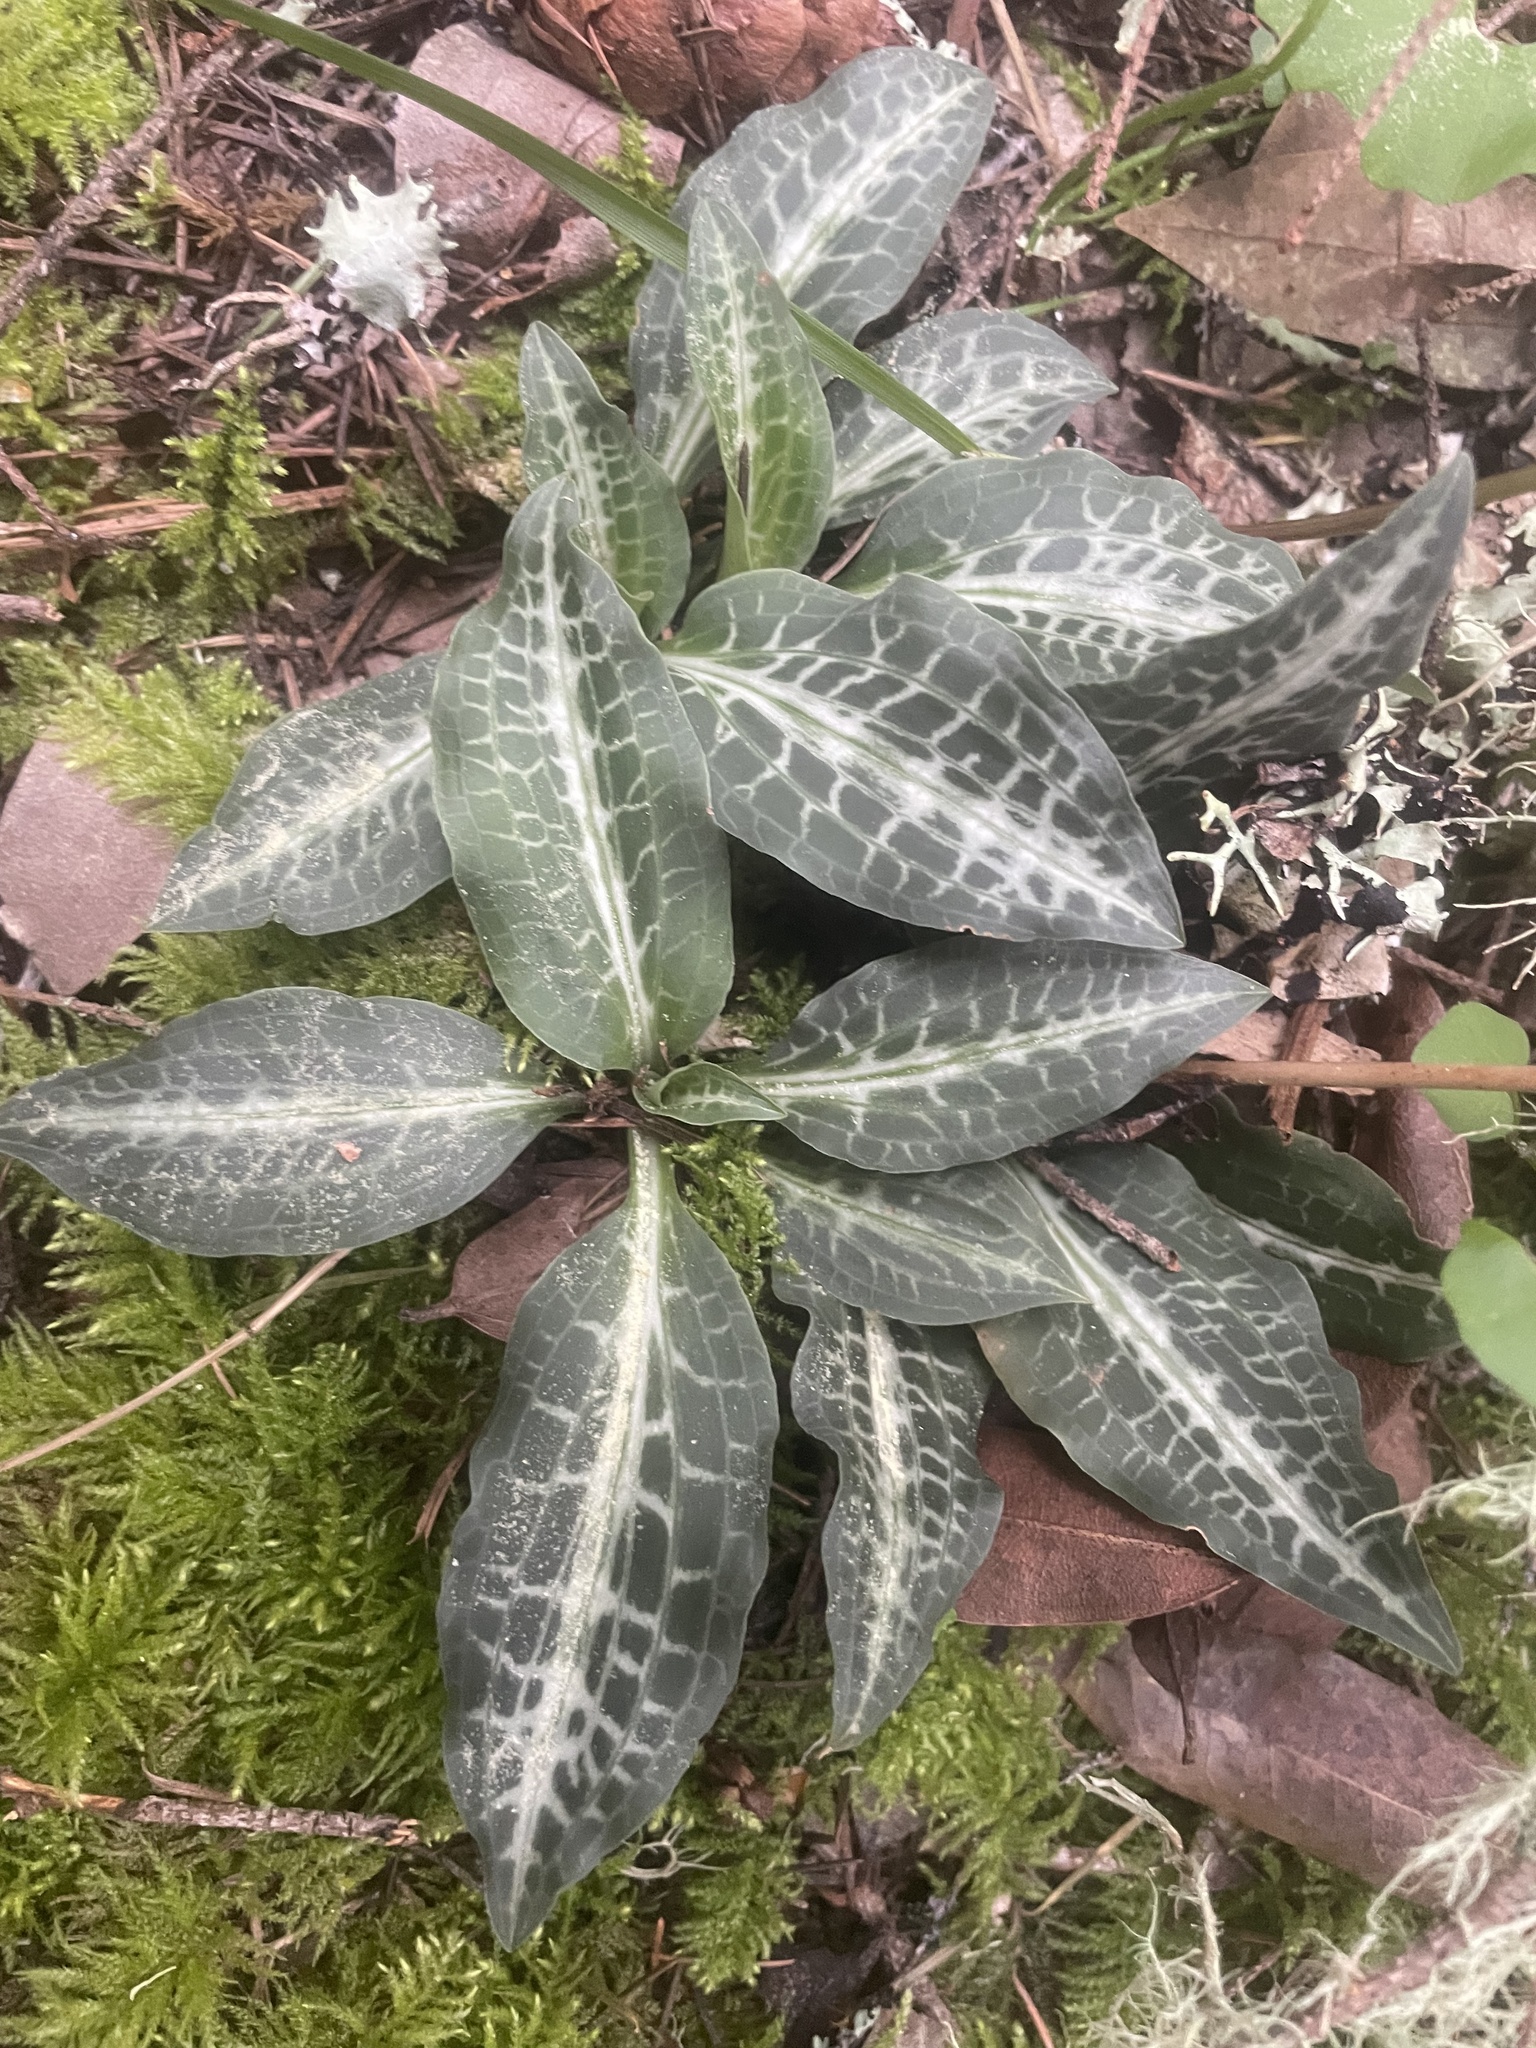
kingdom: Plantae
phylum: Tracheophyta
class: Liliopsida
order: Asparagales
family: Orchidaceae
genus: Goodyera
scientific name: Goodyera oblongifolia
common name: Giant rattlesnake-plantain
